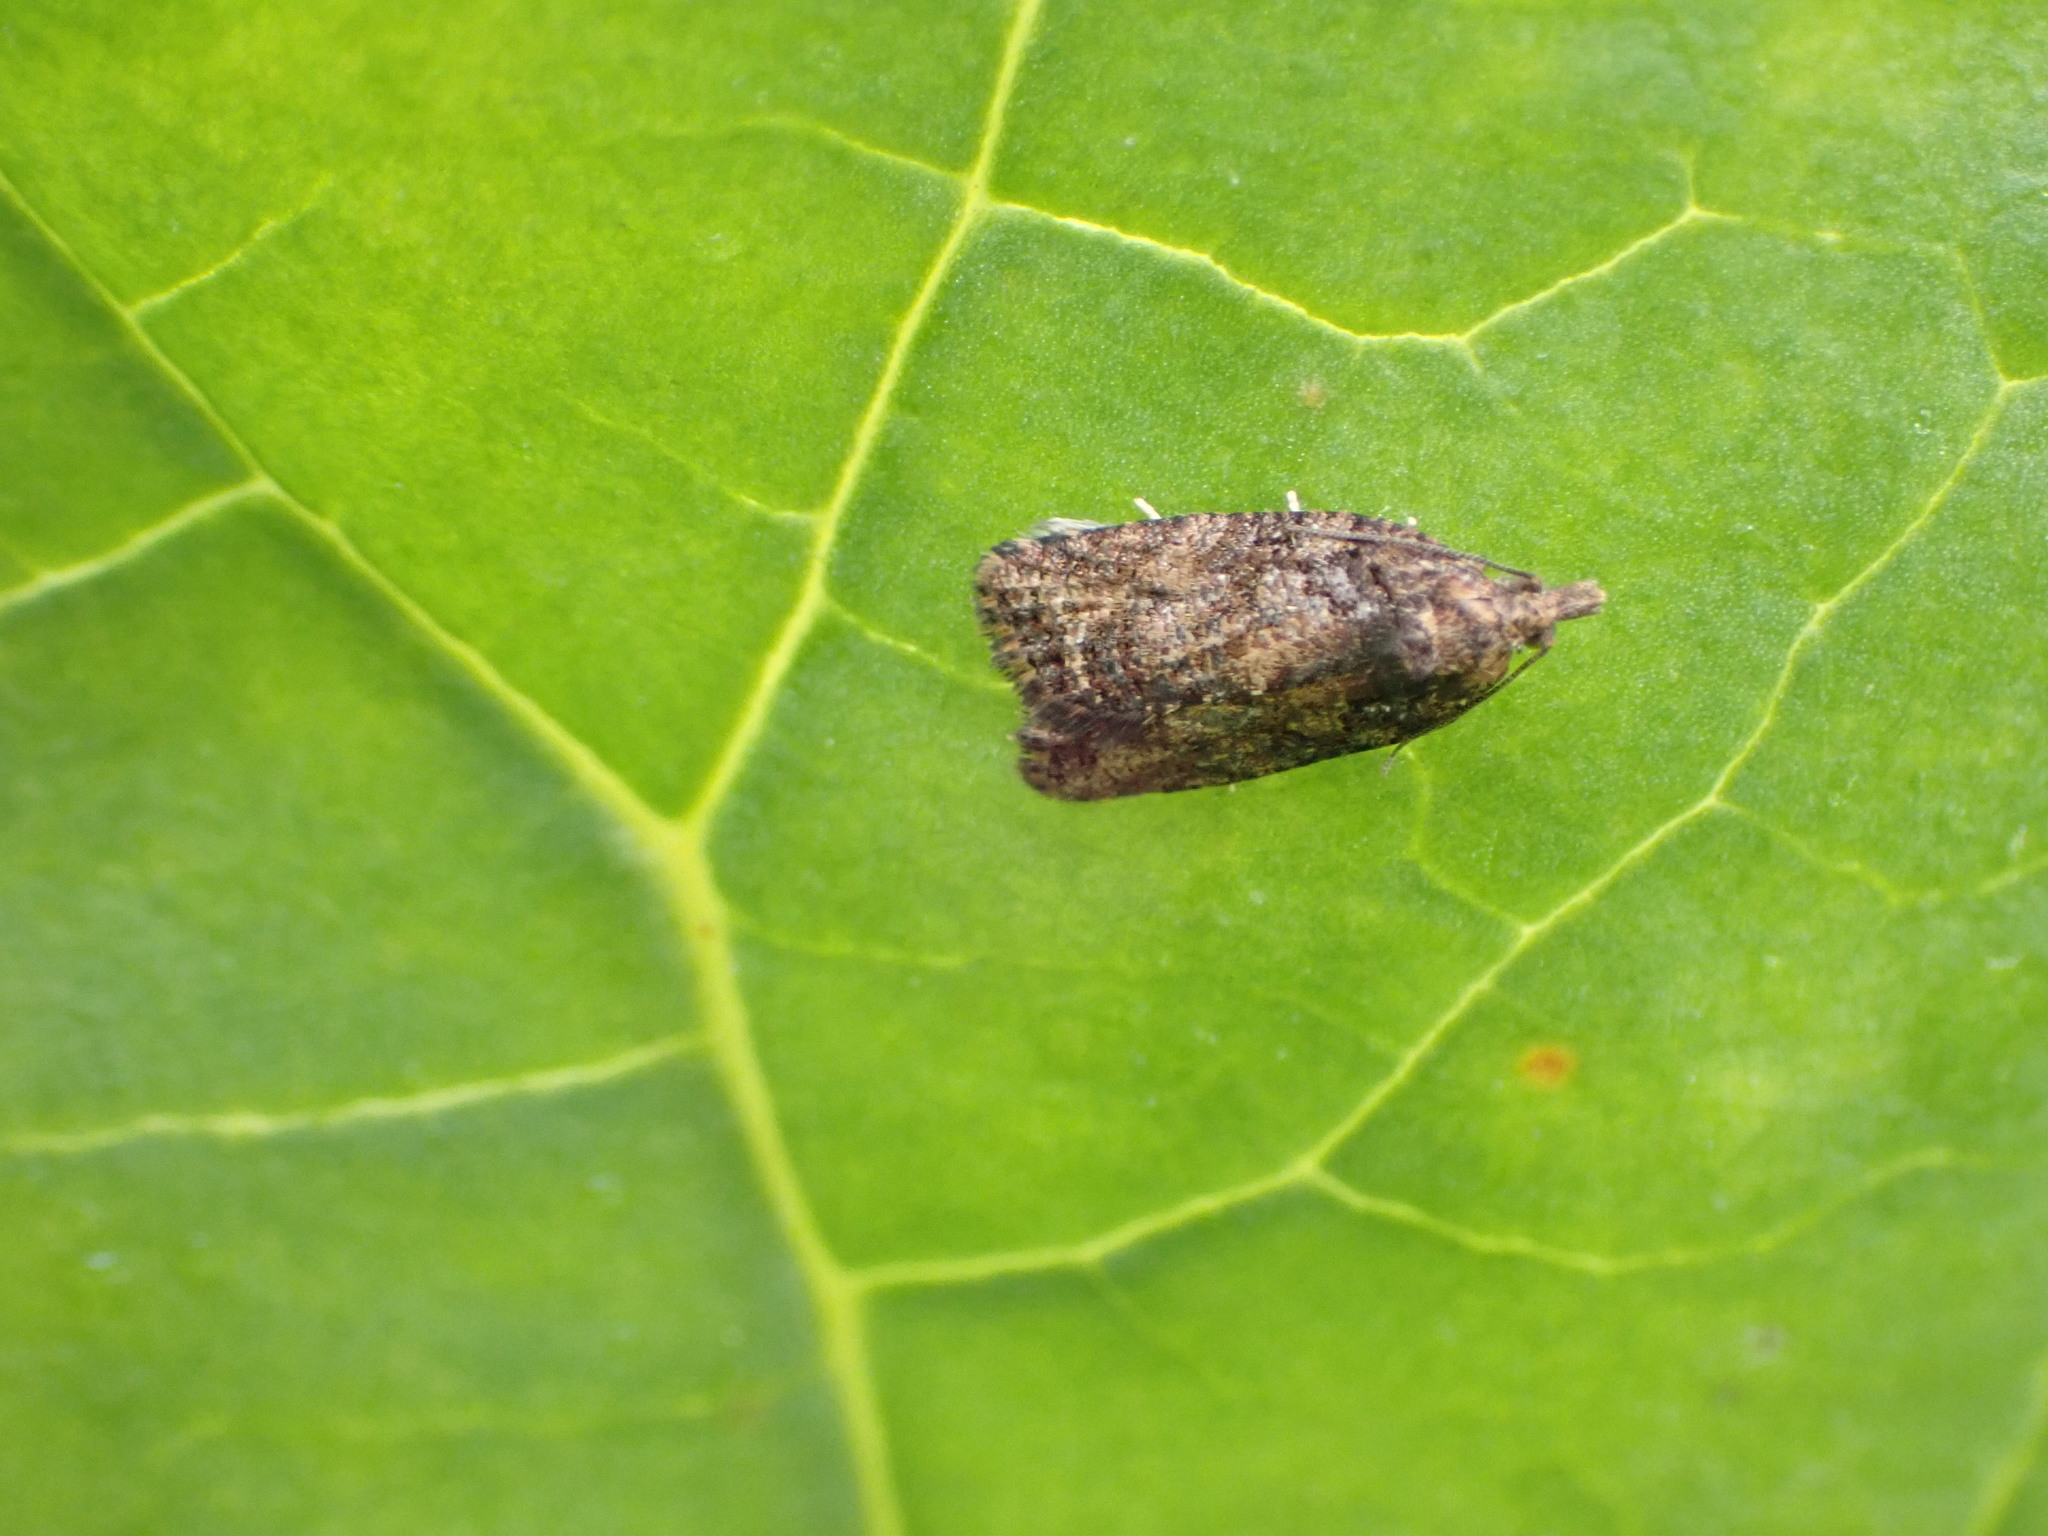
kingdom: Animalia
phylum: Arthropoda
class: Insecta
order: Lepidoptera
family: Tortricidae
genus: Capua
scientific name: Capua intractana
